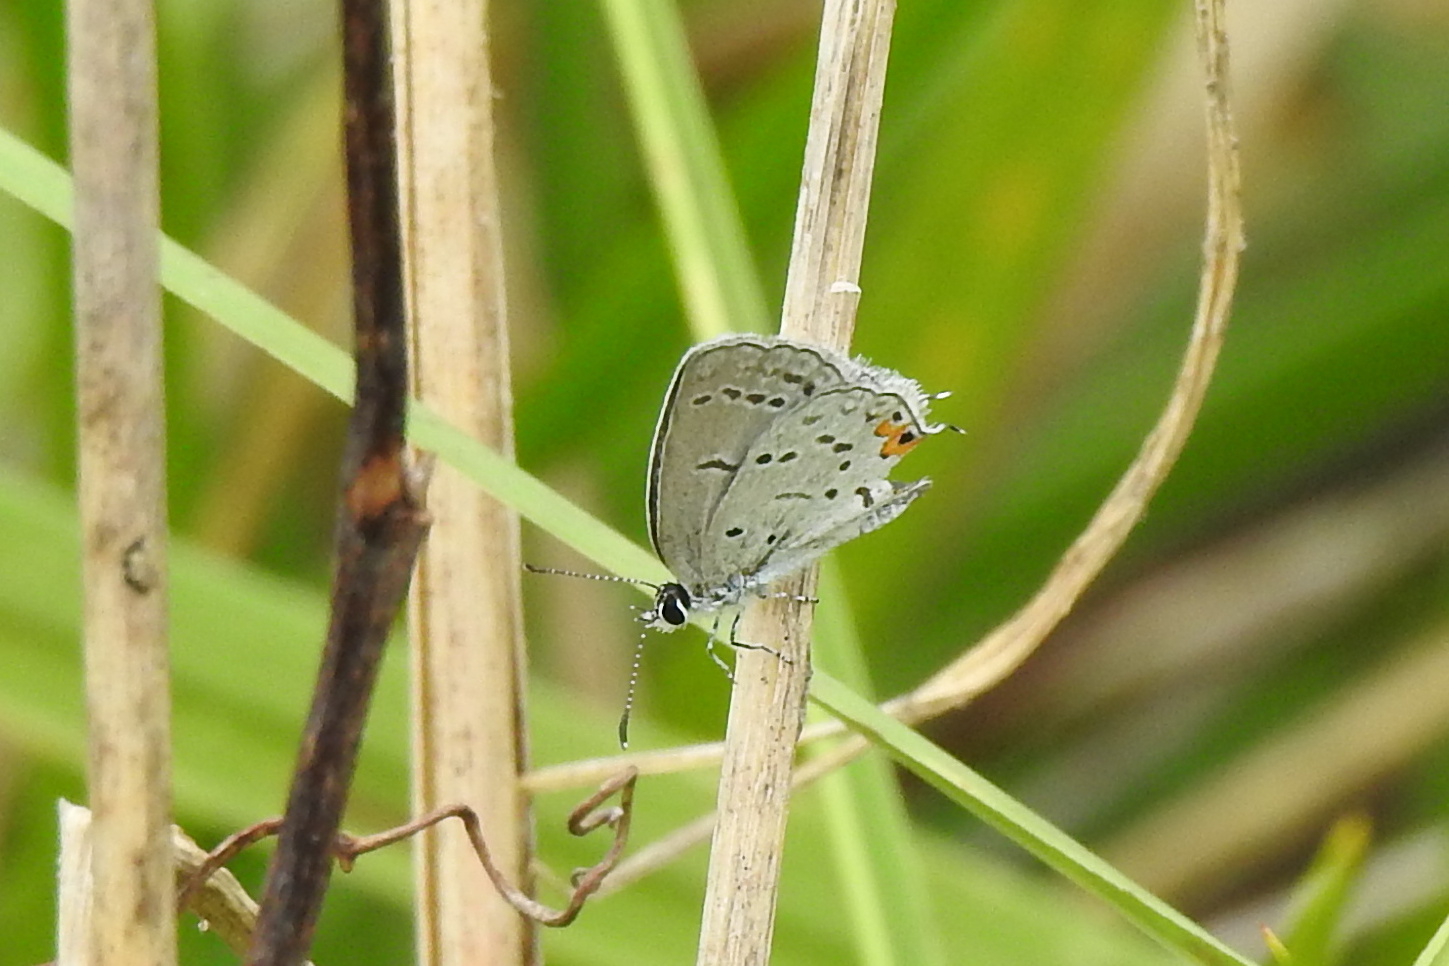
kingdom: Animalia
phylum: Arthropoda
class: Insecta
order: Lepidoptera
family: Lycaenidae
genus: Elkalyce
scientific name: Elkalyce comyntas
